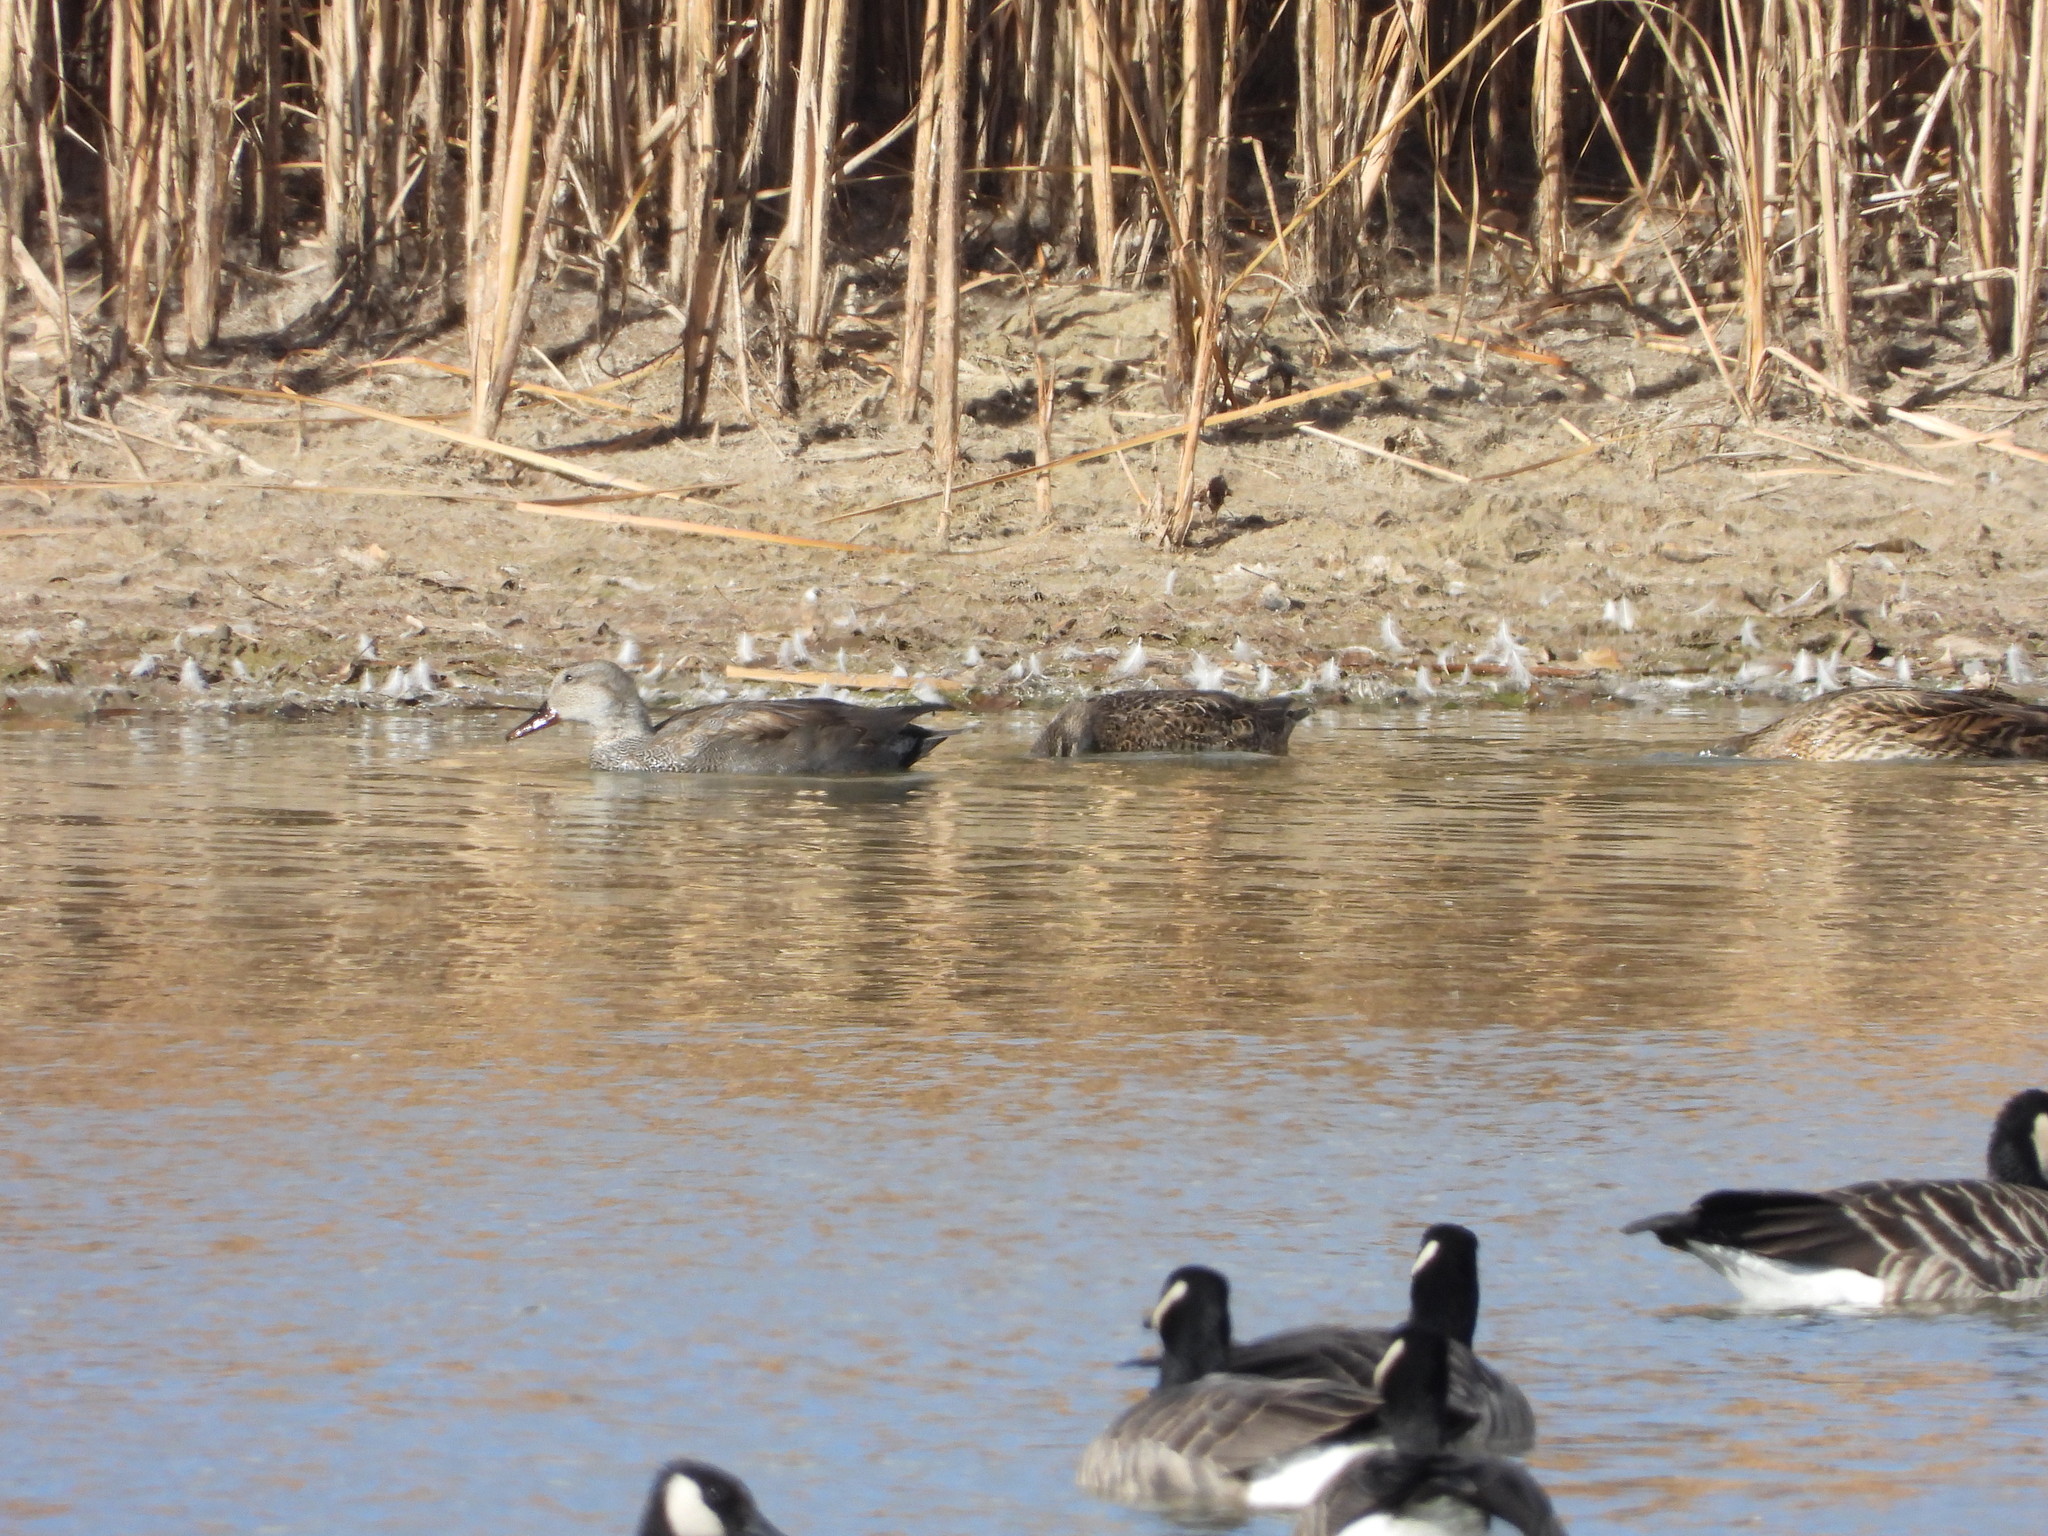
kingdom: Animalia
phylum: Chordata
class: Aves
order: Anseriformes
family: Anatidae
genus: Mareca
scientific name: Mareca strepera
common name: Gadwall
